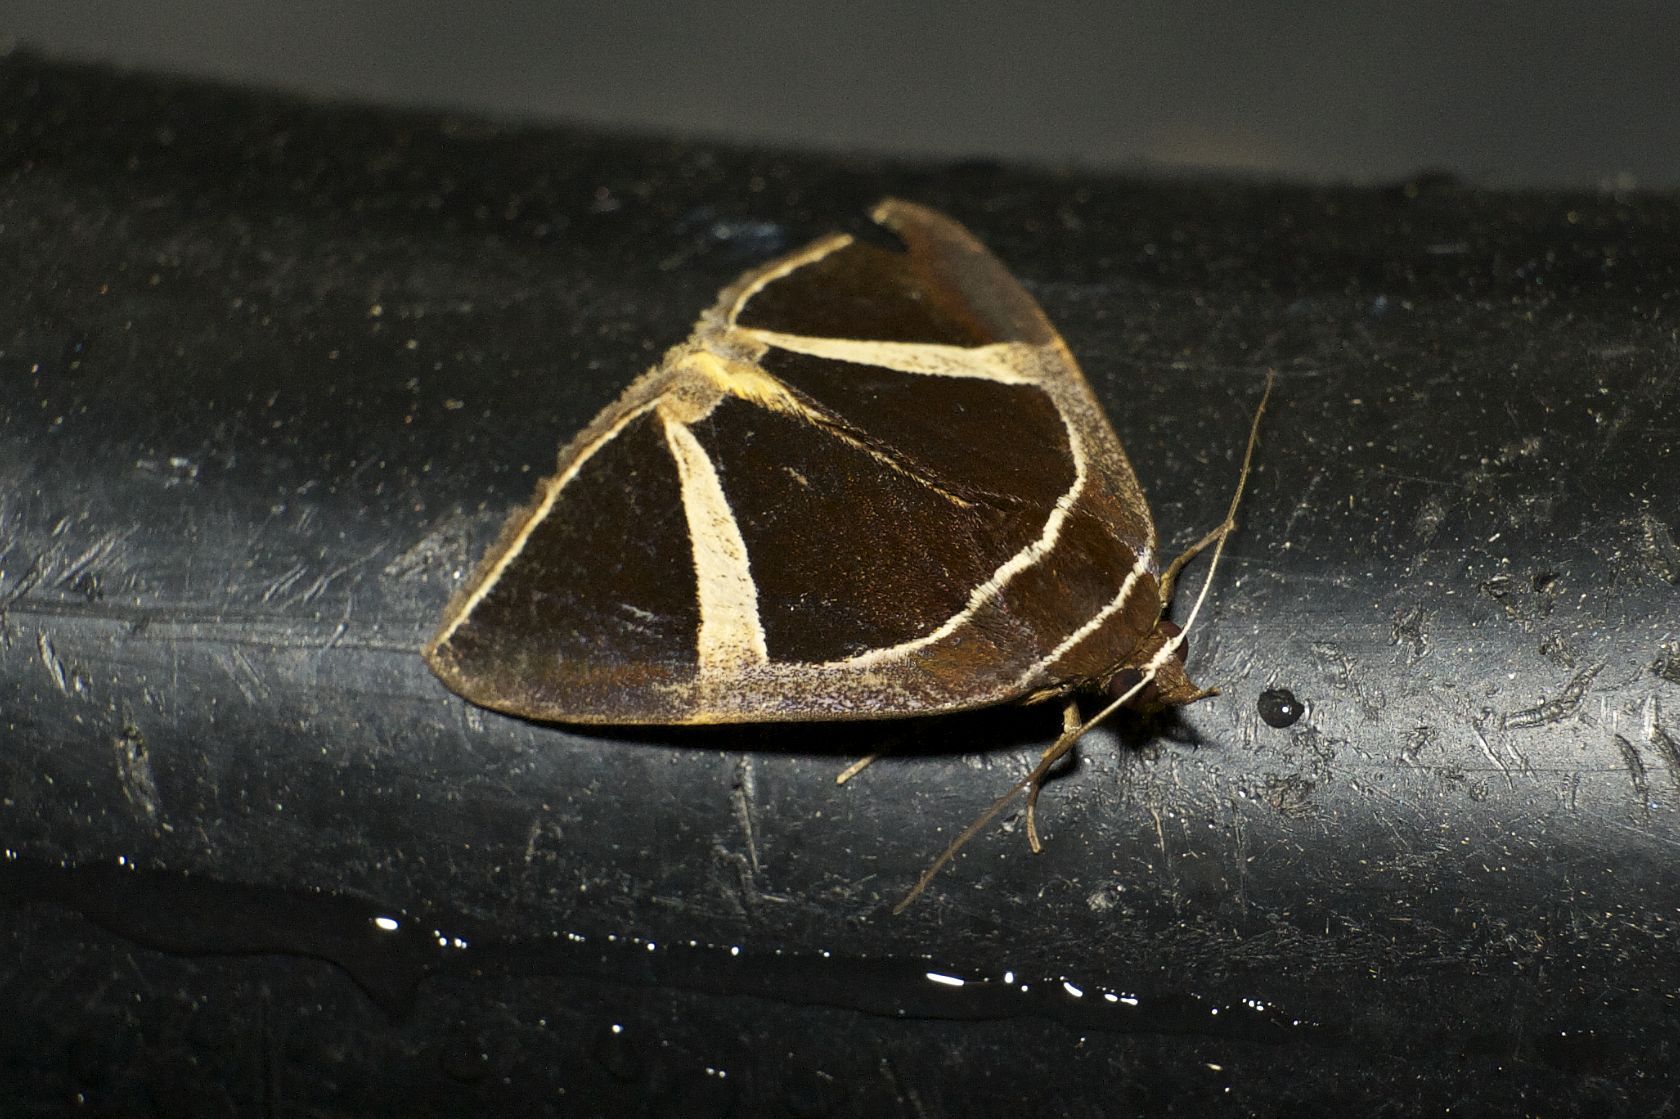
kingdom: Animalia
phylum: Arthropoda
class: Insecta
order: Lepidoptera
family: Erebidae
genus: Fodina
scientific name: Fodina kosemponis
